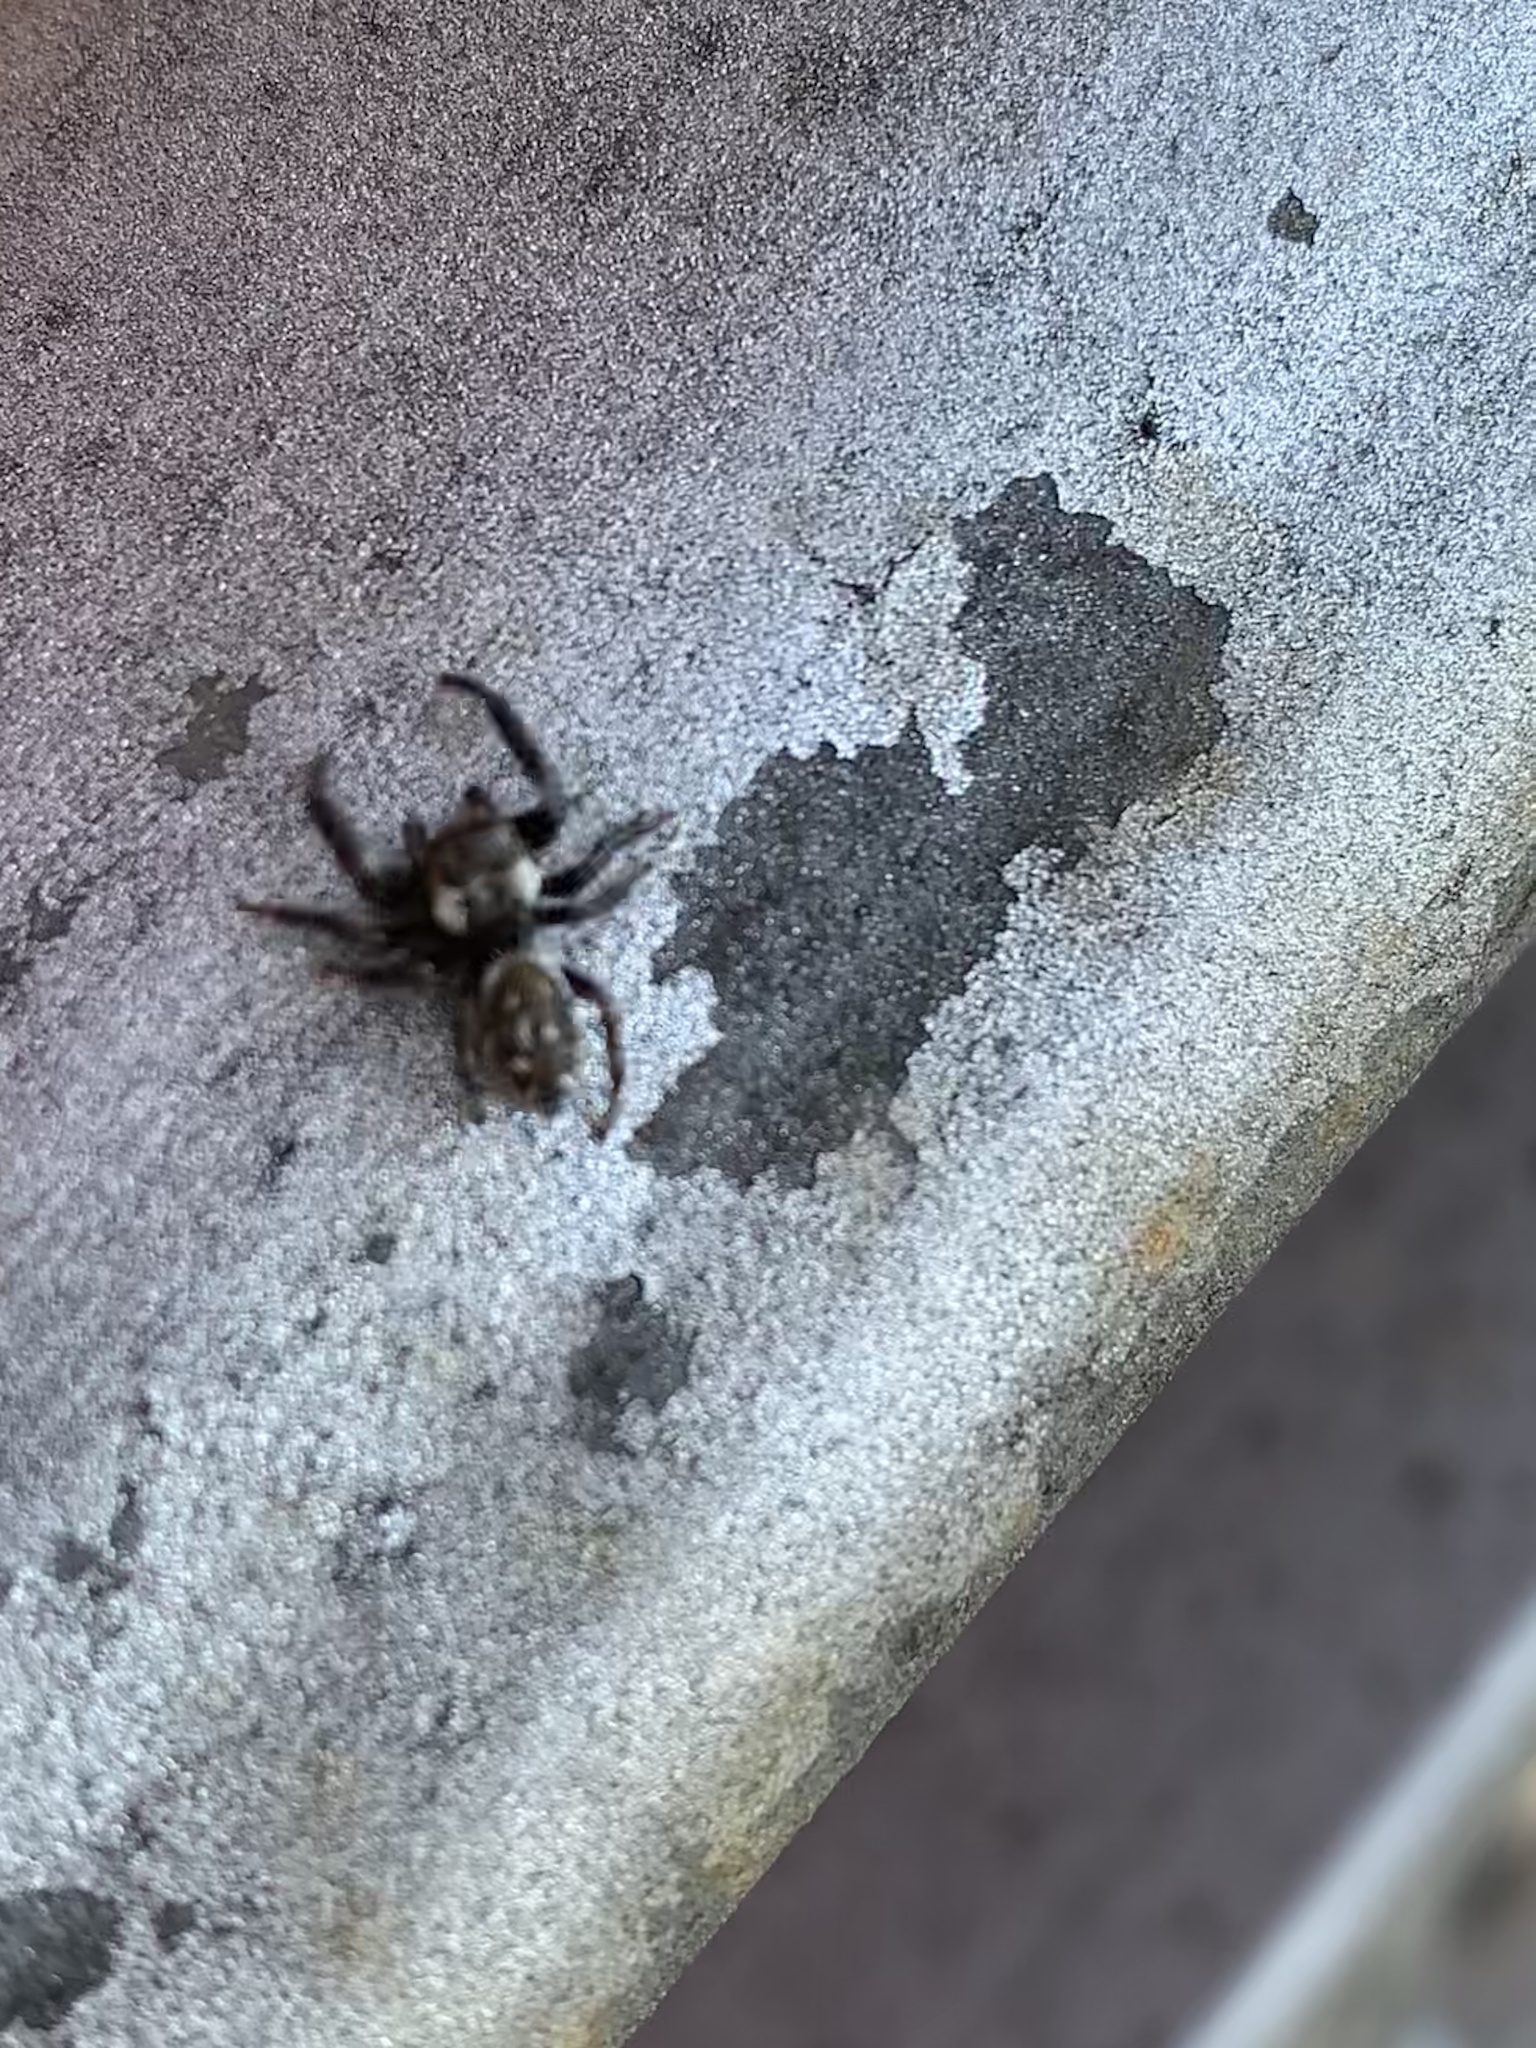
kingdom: Animalia
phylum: Arthropoda
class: Arachnida
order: Araneae
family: Salticidae
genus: Macaroeris
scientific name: Macaroeris nidicolens
